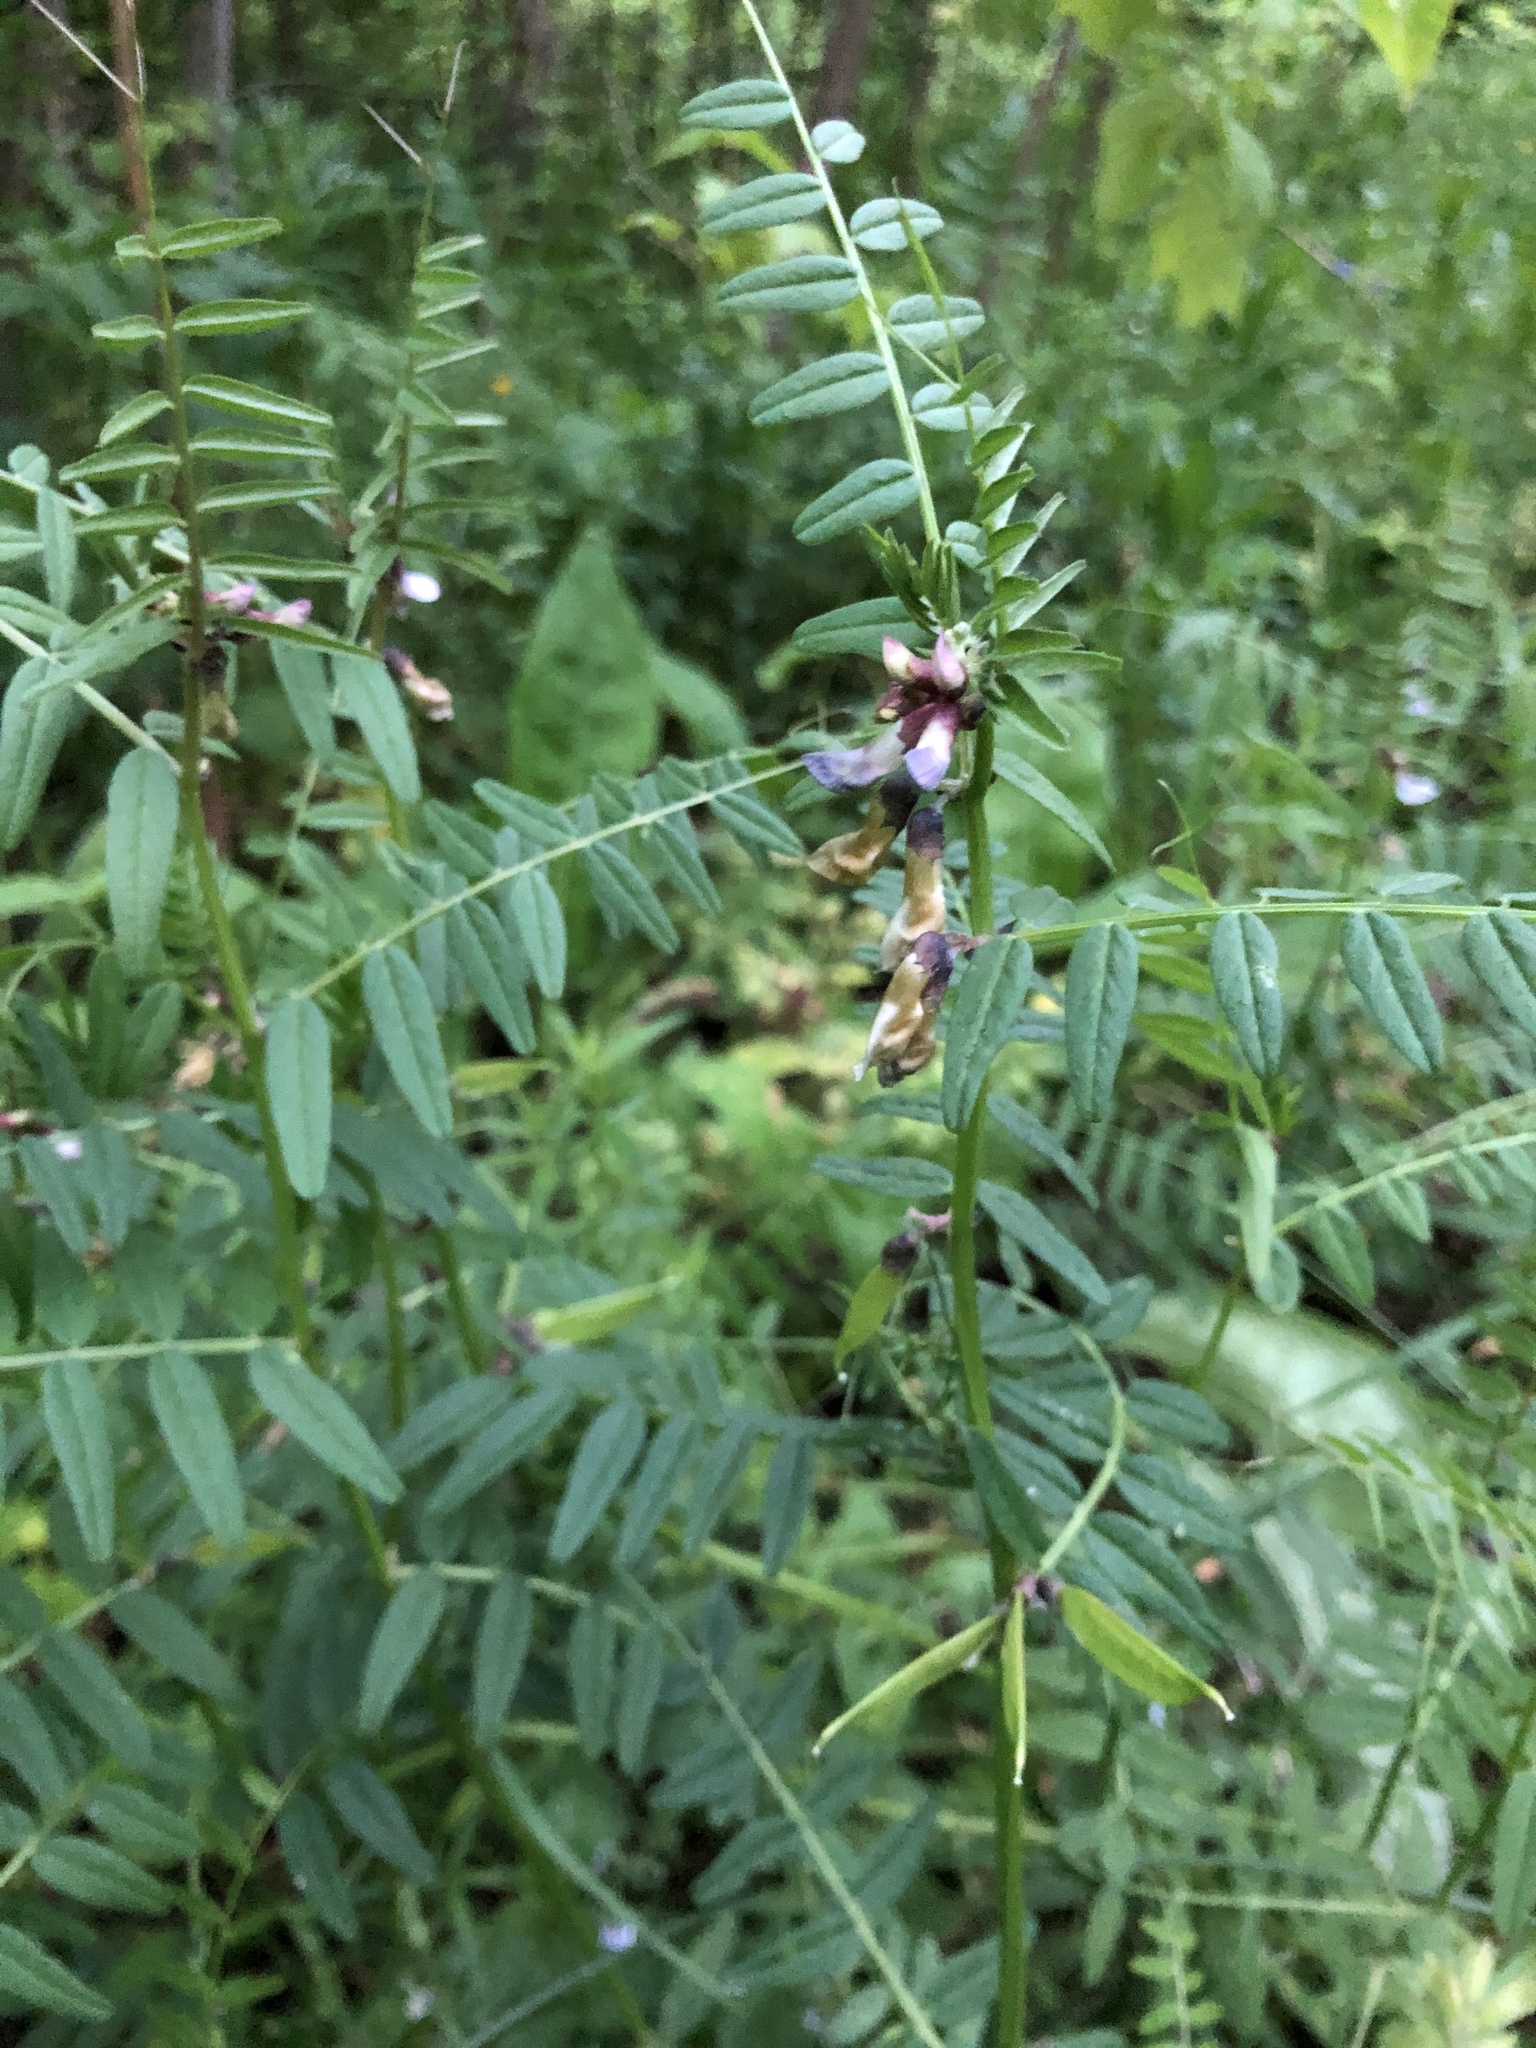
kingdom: Plantae
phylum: Tracheophyta
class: Magnoliopsida
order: Fabales
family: Fabaceae
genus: Vicia
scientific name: Vicia sepium
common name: Bush vetch
